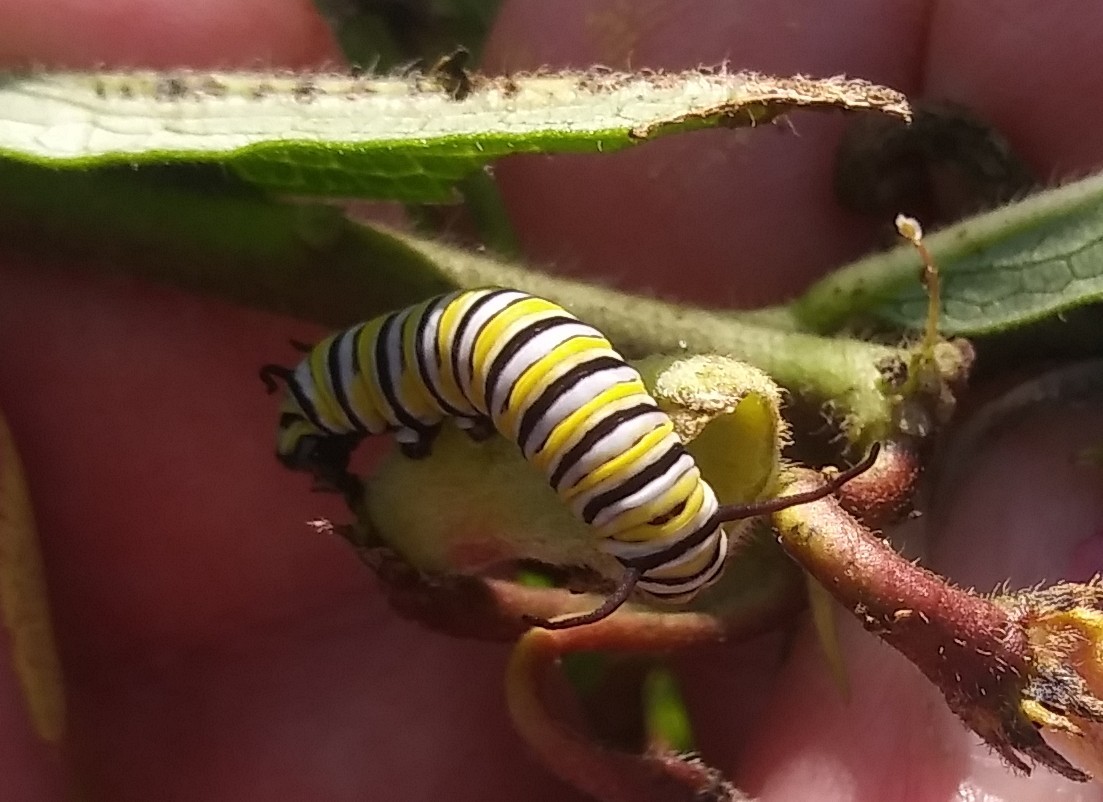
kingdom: Animalia
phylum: Arthropoda
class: Insecta
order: Lepidoptera
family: Nymphalidae
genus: Danaus
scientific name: Danaus plexippus
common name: Monarch
